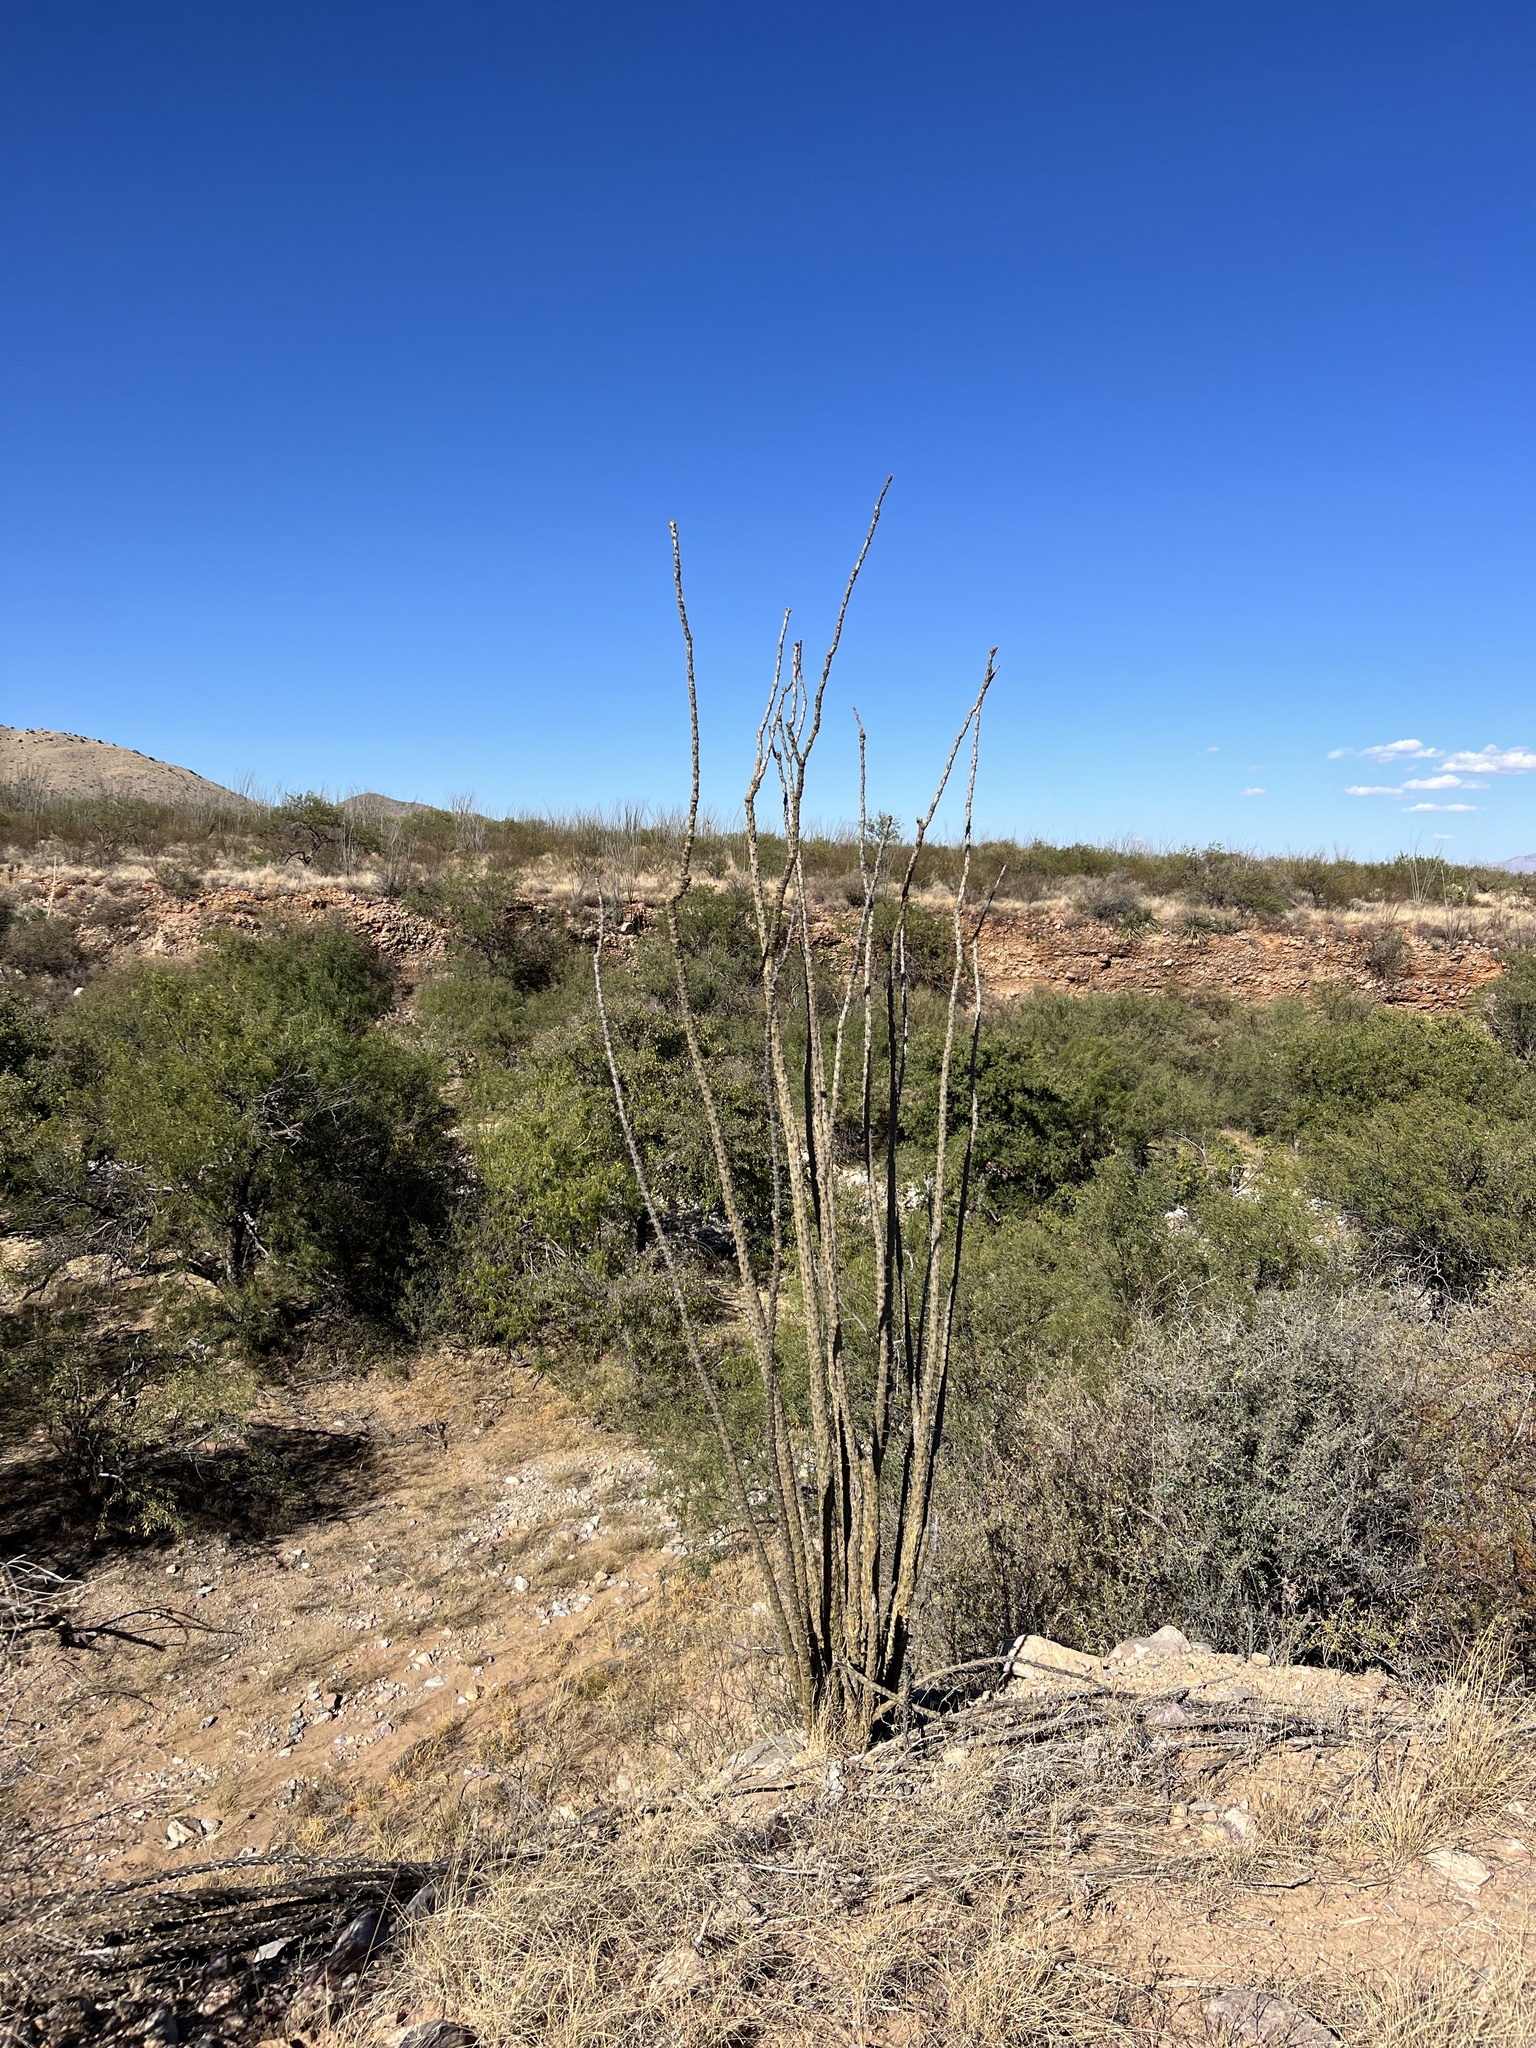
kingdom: Plantae
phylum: Tracheophyta
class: Magnoliopsida
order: Ericales
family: Fouquieriaceae
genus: Fouquieria
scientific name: Fouquieria splendens
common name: Vine-cactus
